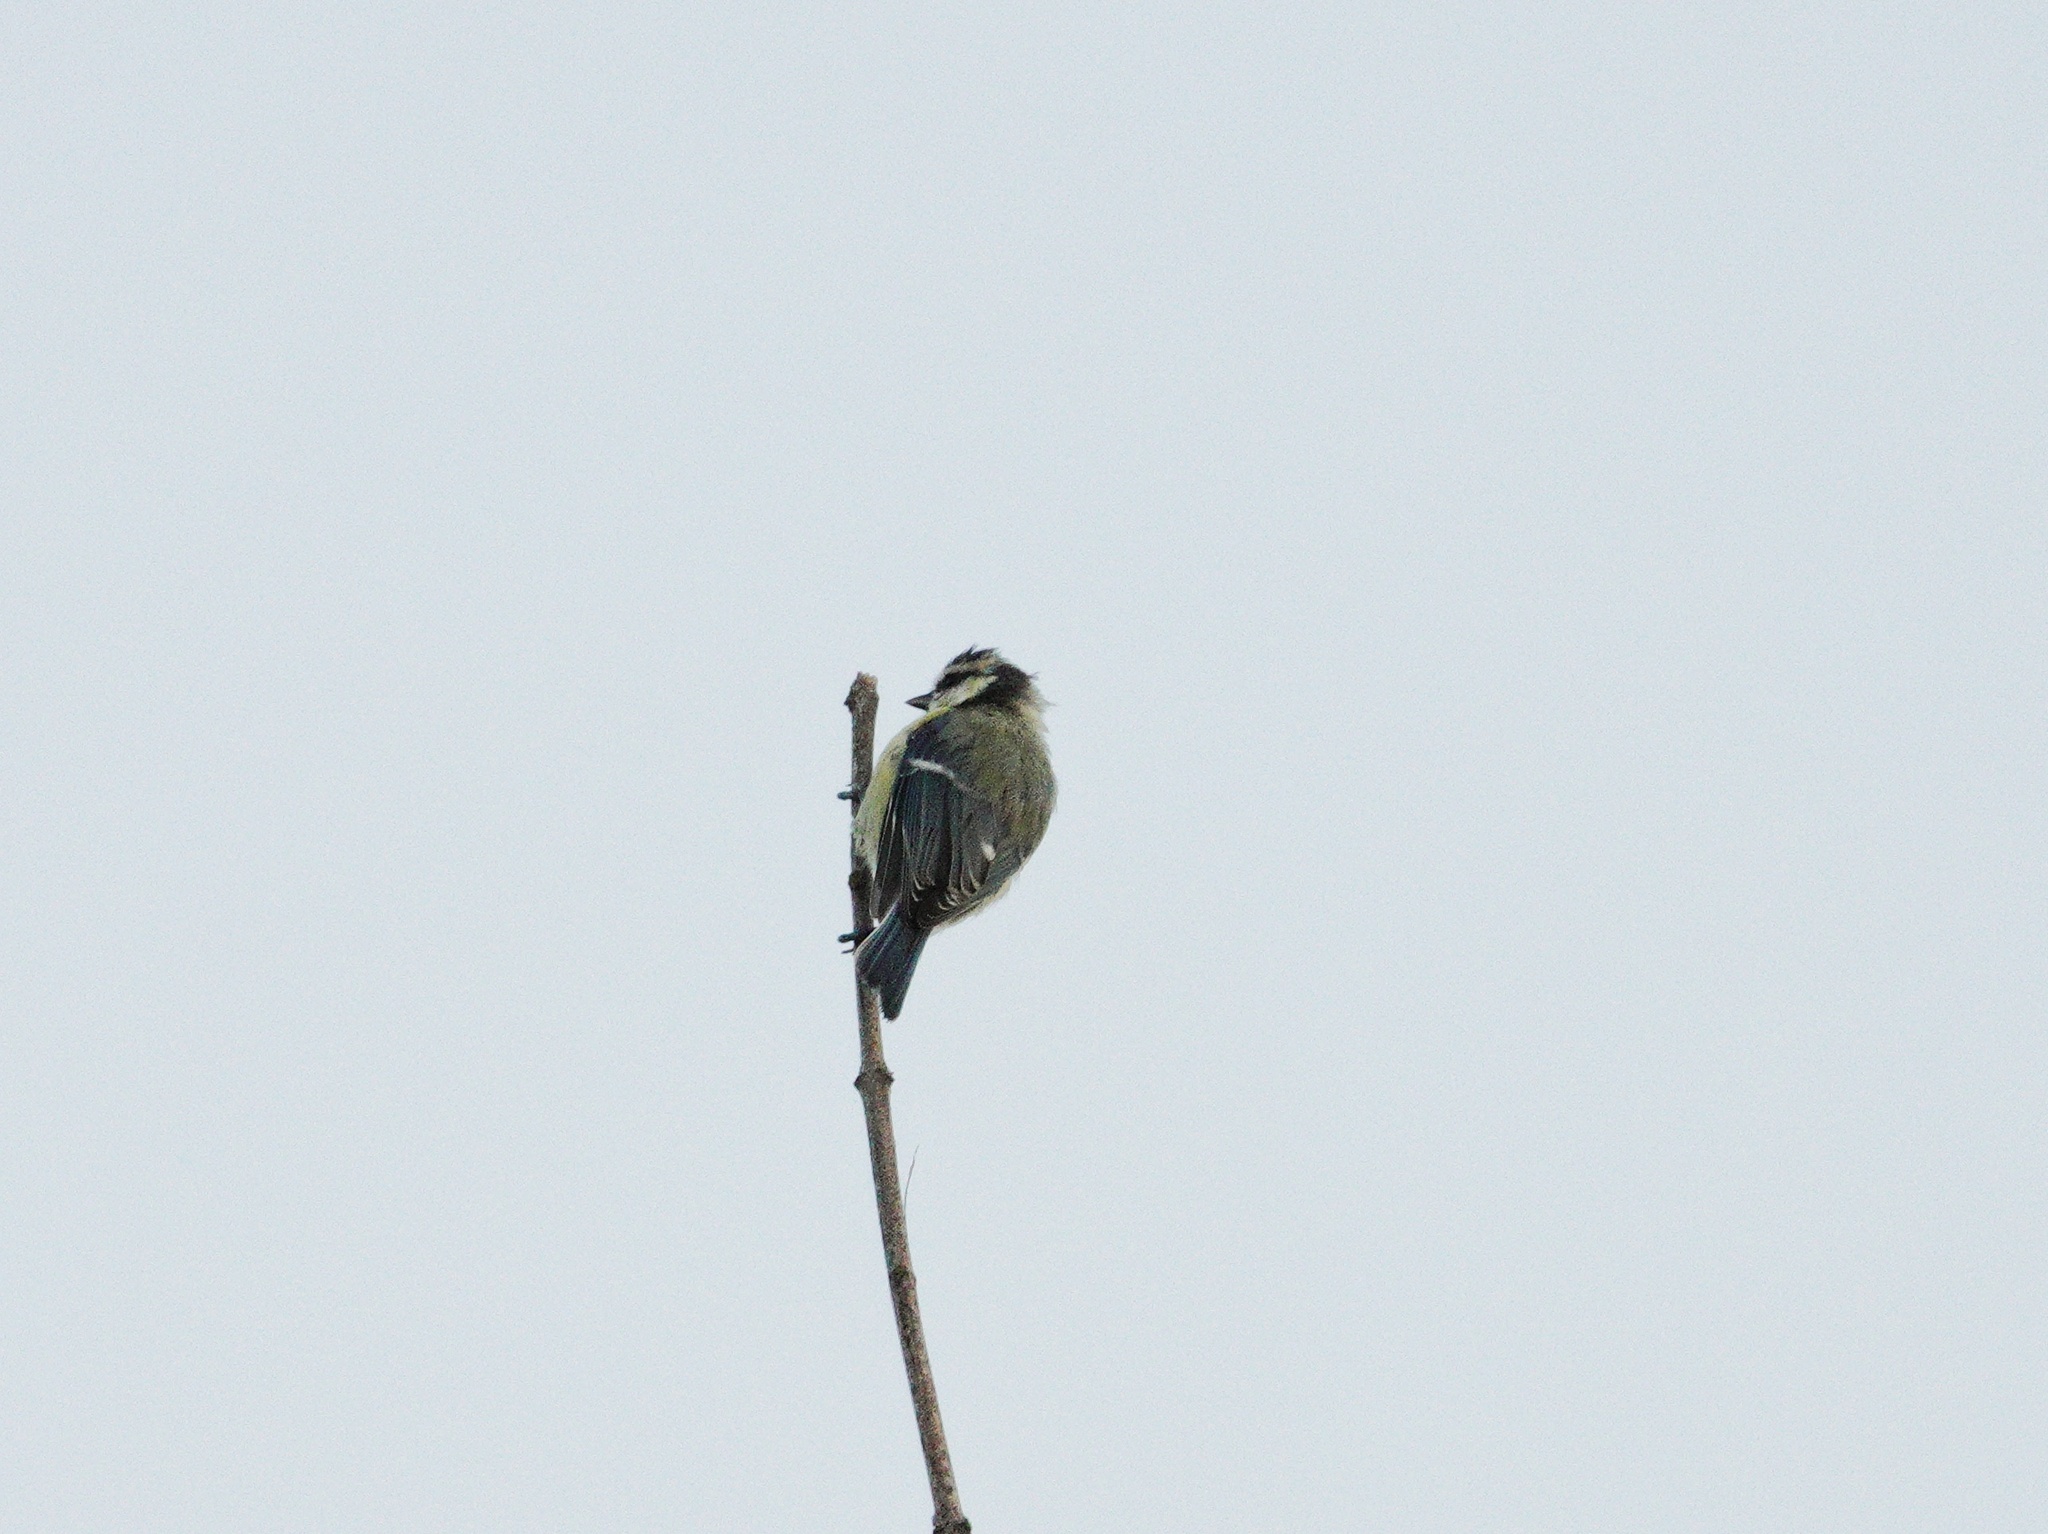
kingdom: Animalia
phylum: Chordata
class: Aves
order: Passeriformes
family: Paridae
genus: Cyanistes
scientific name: Cyanistes caeruleus
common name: Eurasian blue tit
